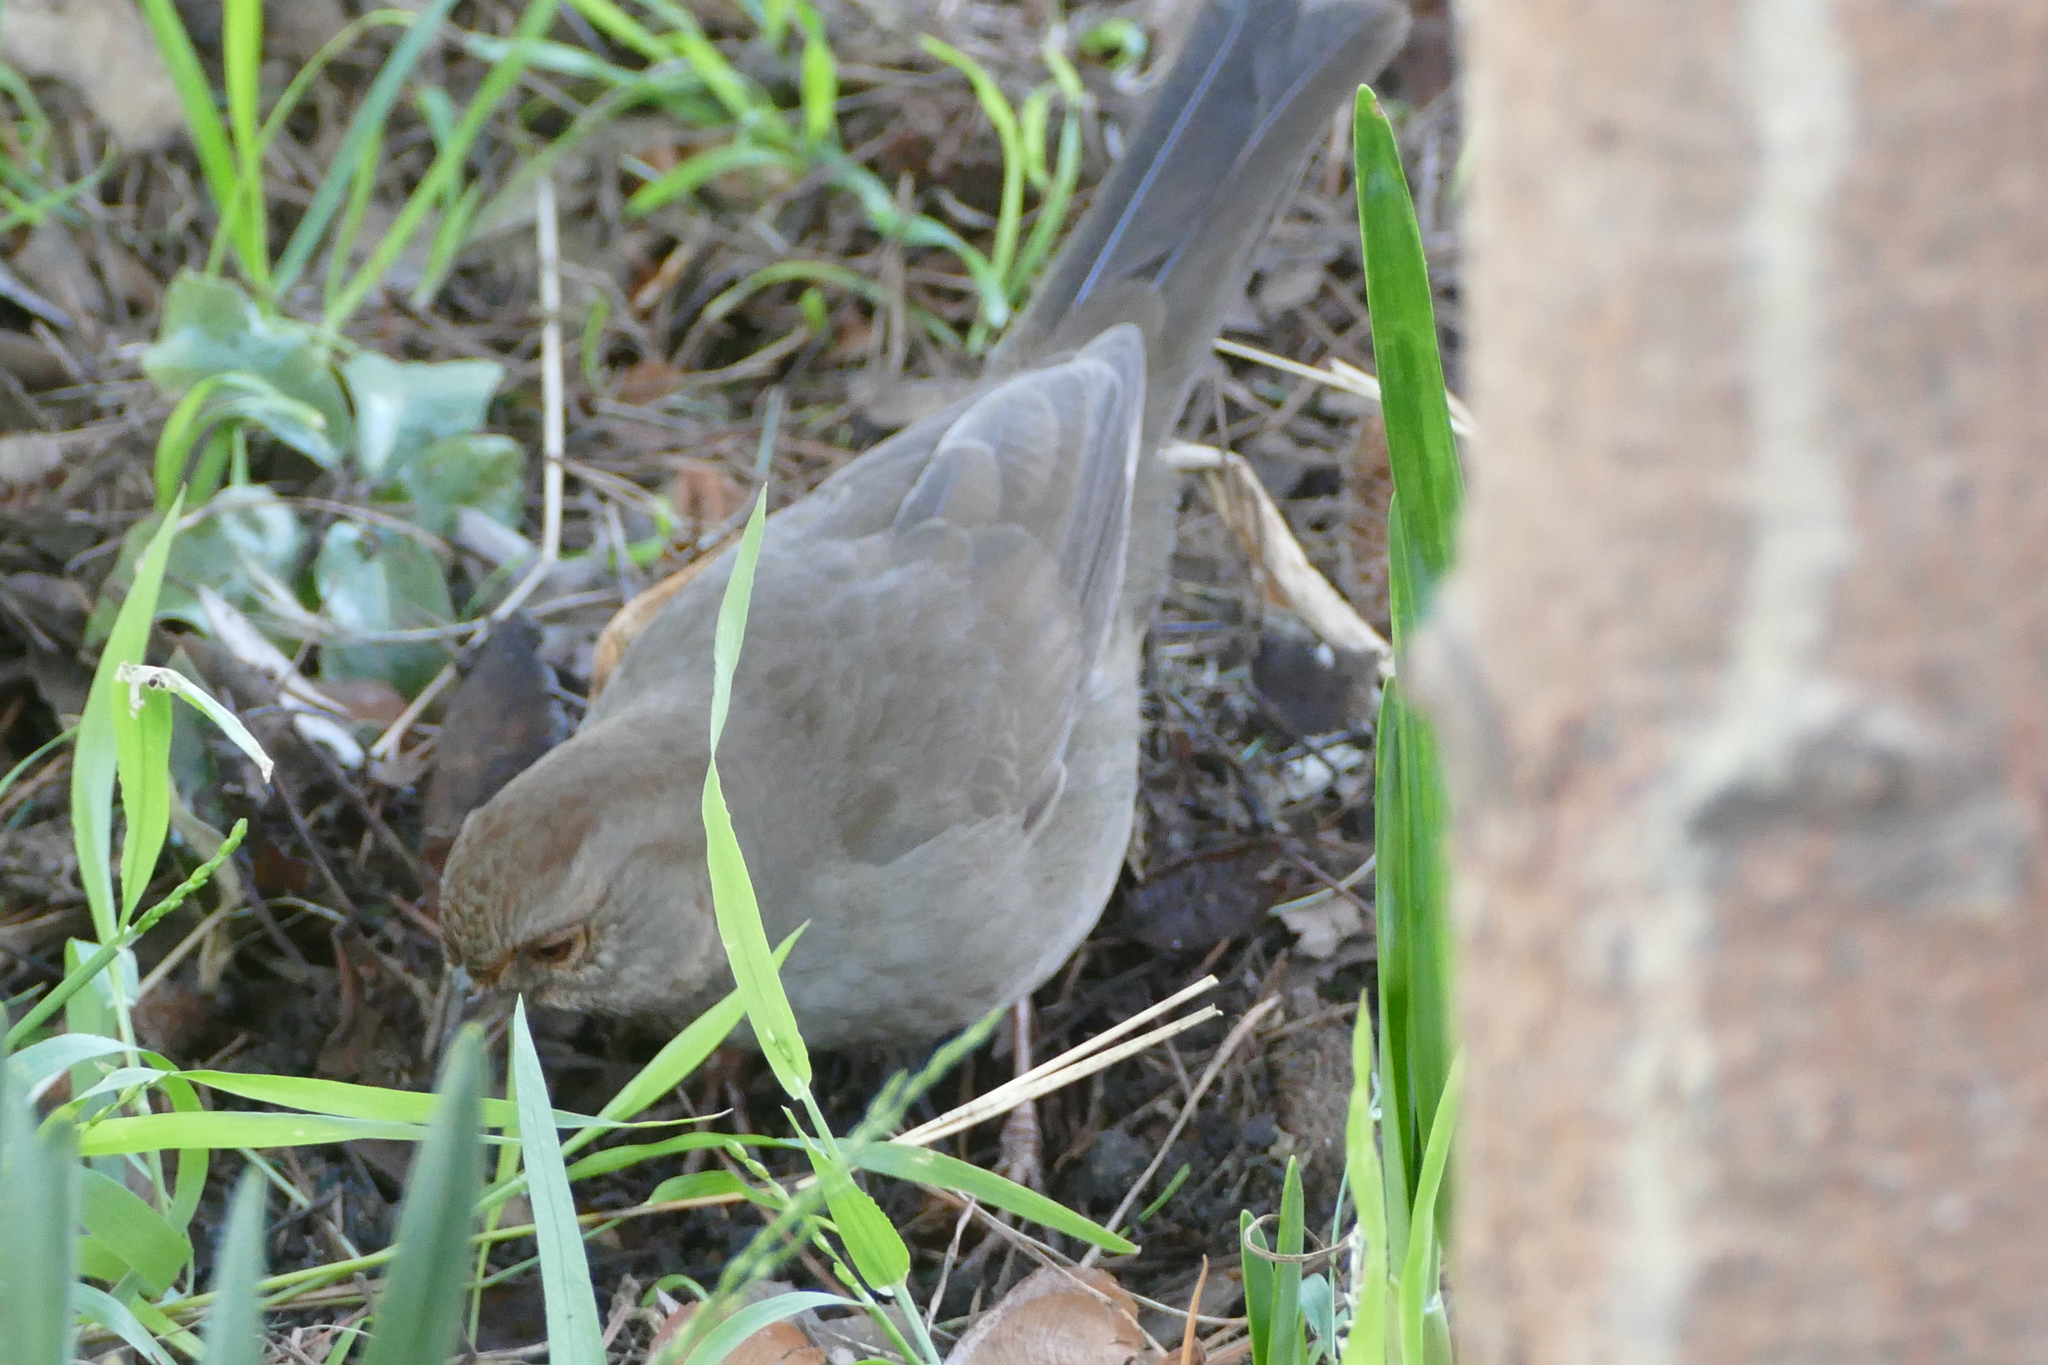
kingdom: Animalia
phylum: Chordata
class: Aves
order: Passeriformes
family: Passerellidae
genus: Melozone
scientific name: Melozone crissalis
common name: California towhee
